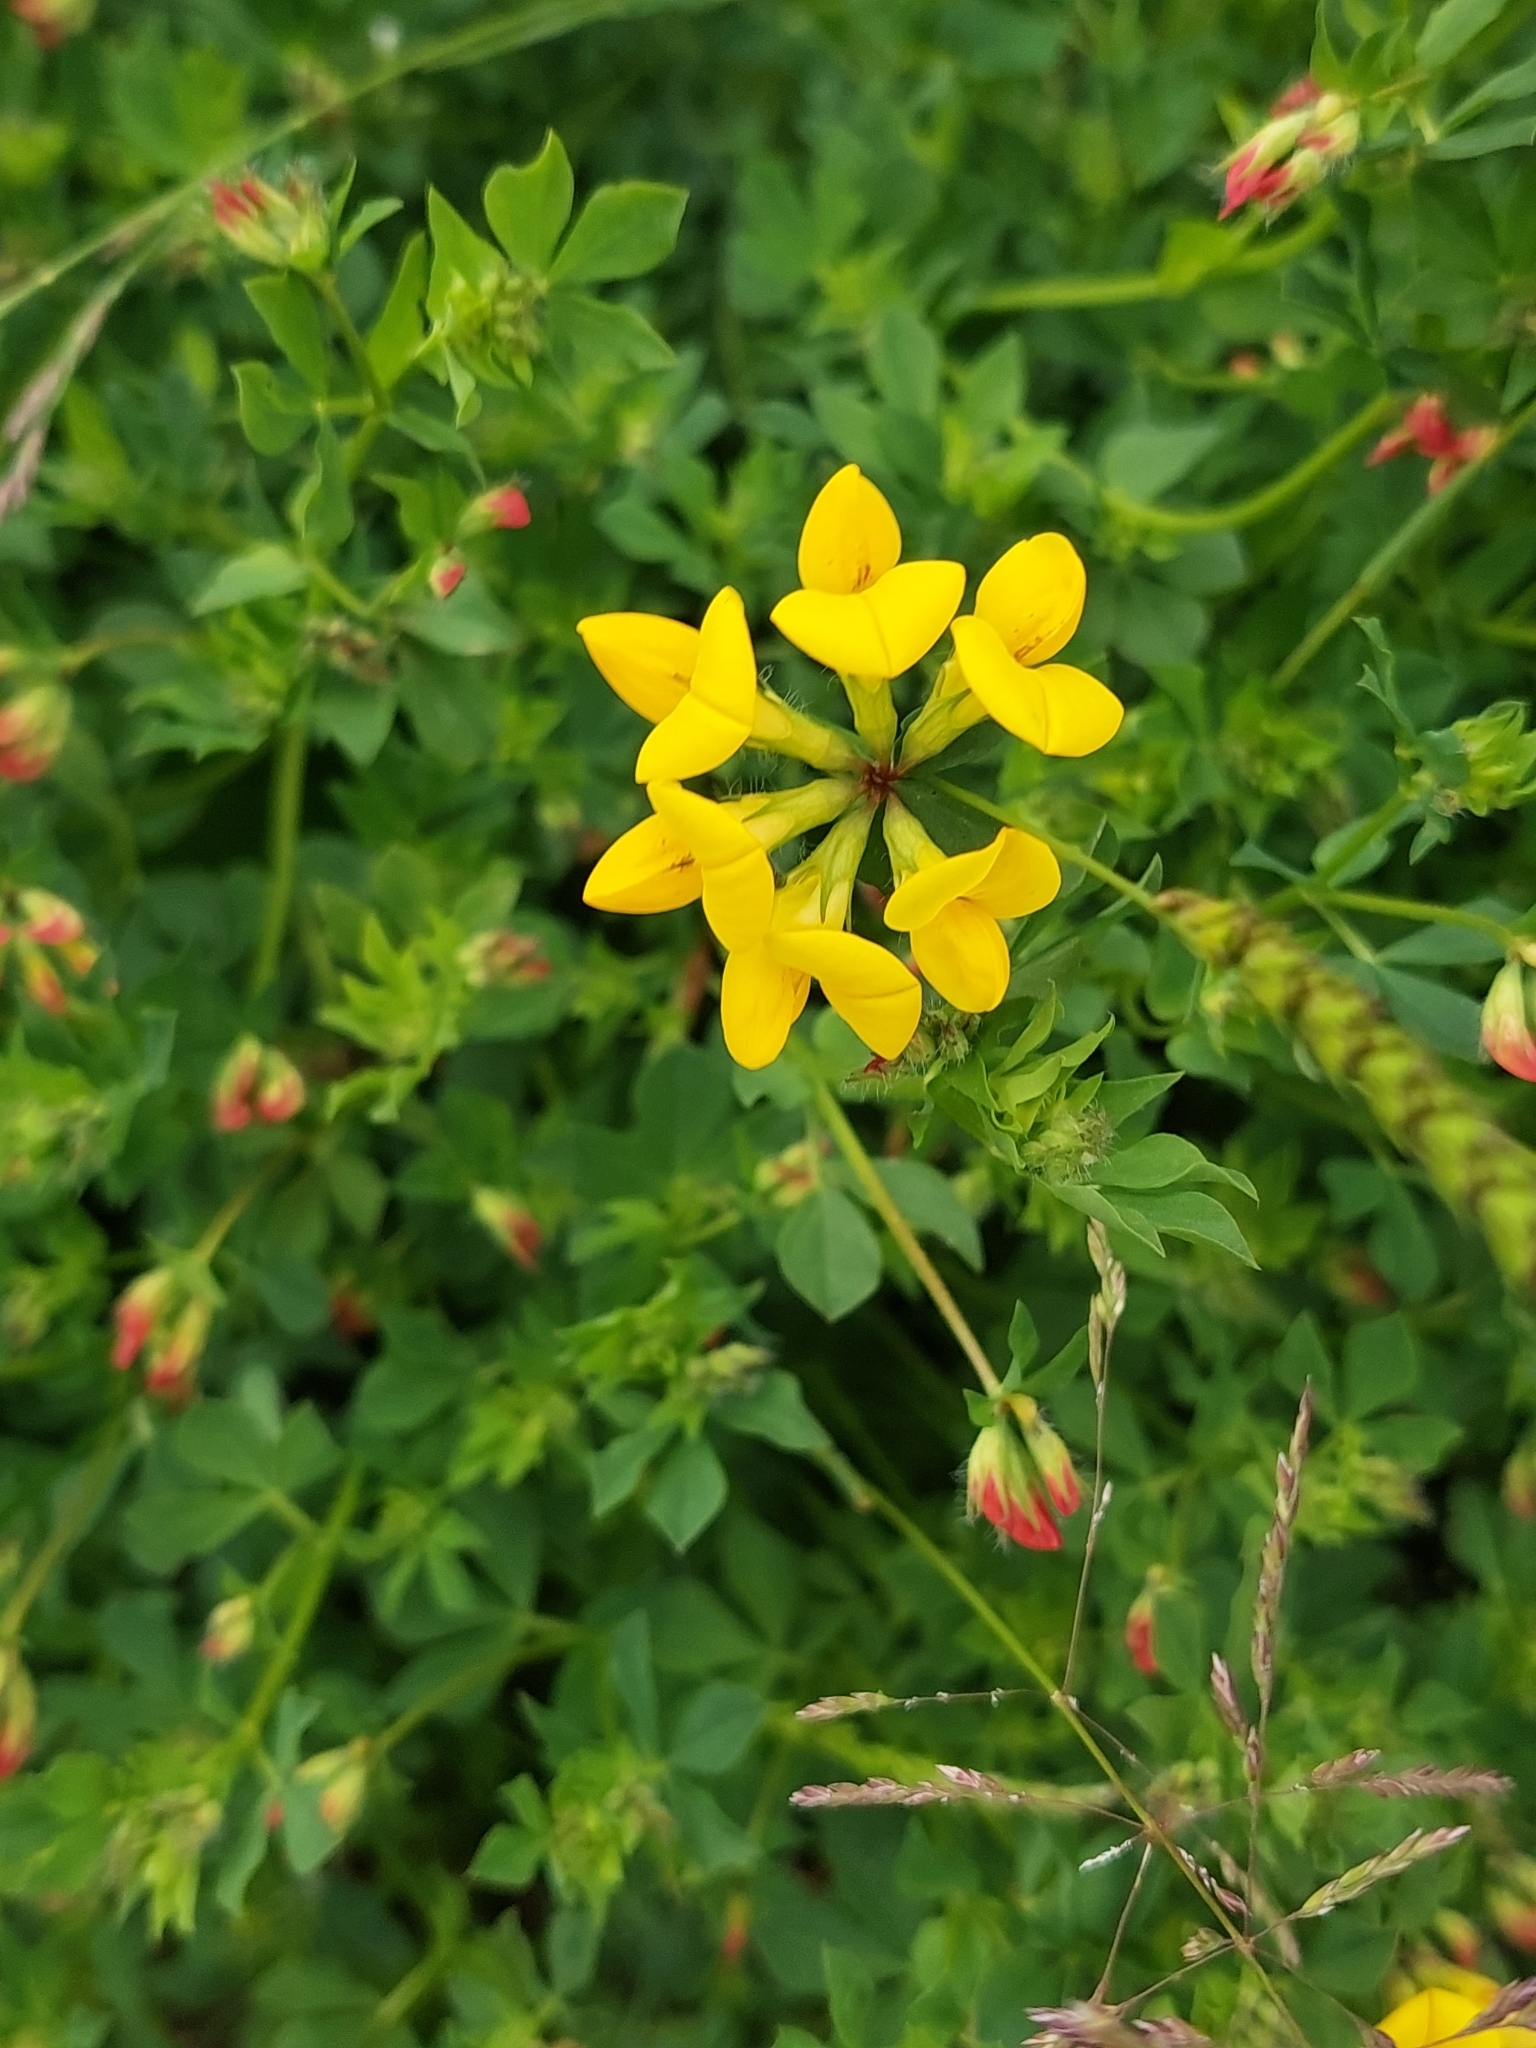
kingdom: Plantae
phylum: Tracheophyta
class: Magnoliopsida
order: Fabales
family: Fabaceae
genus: Lotus
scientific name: Lotus corniculatus
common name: Common bird's-foot-trefoil
